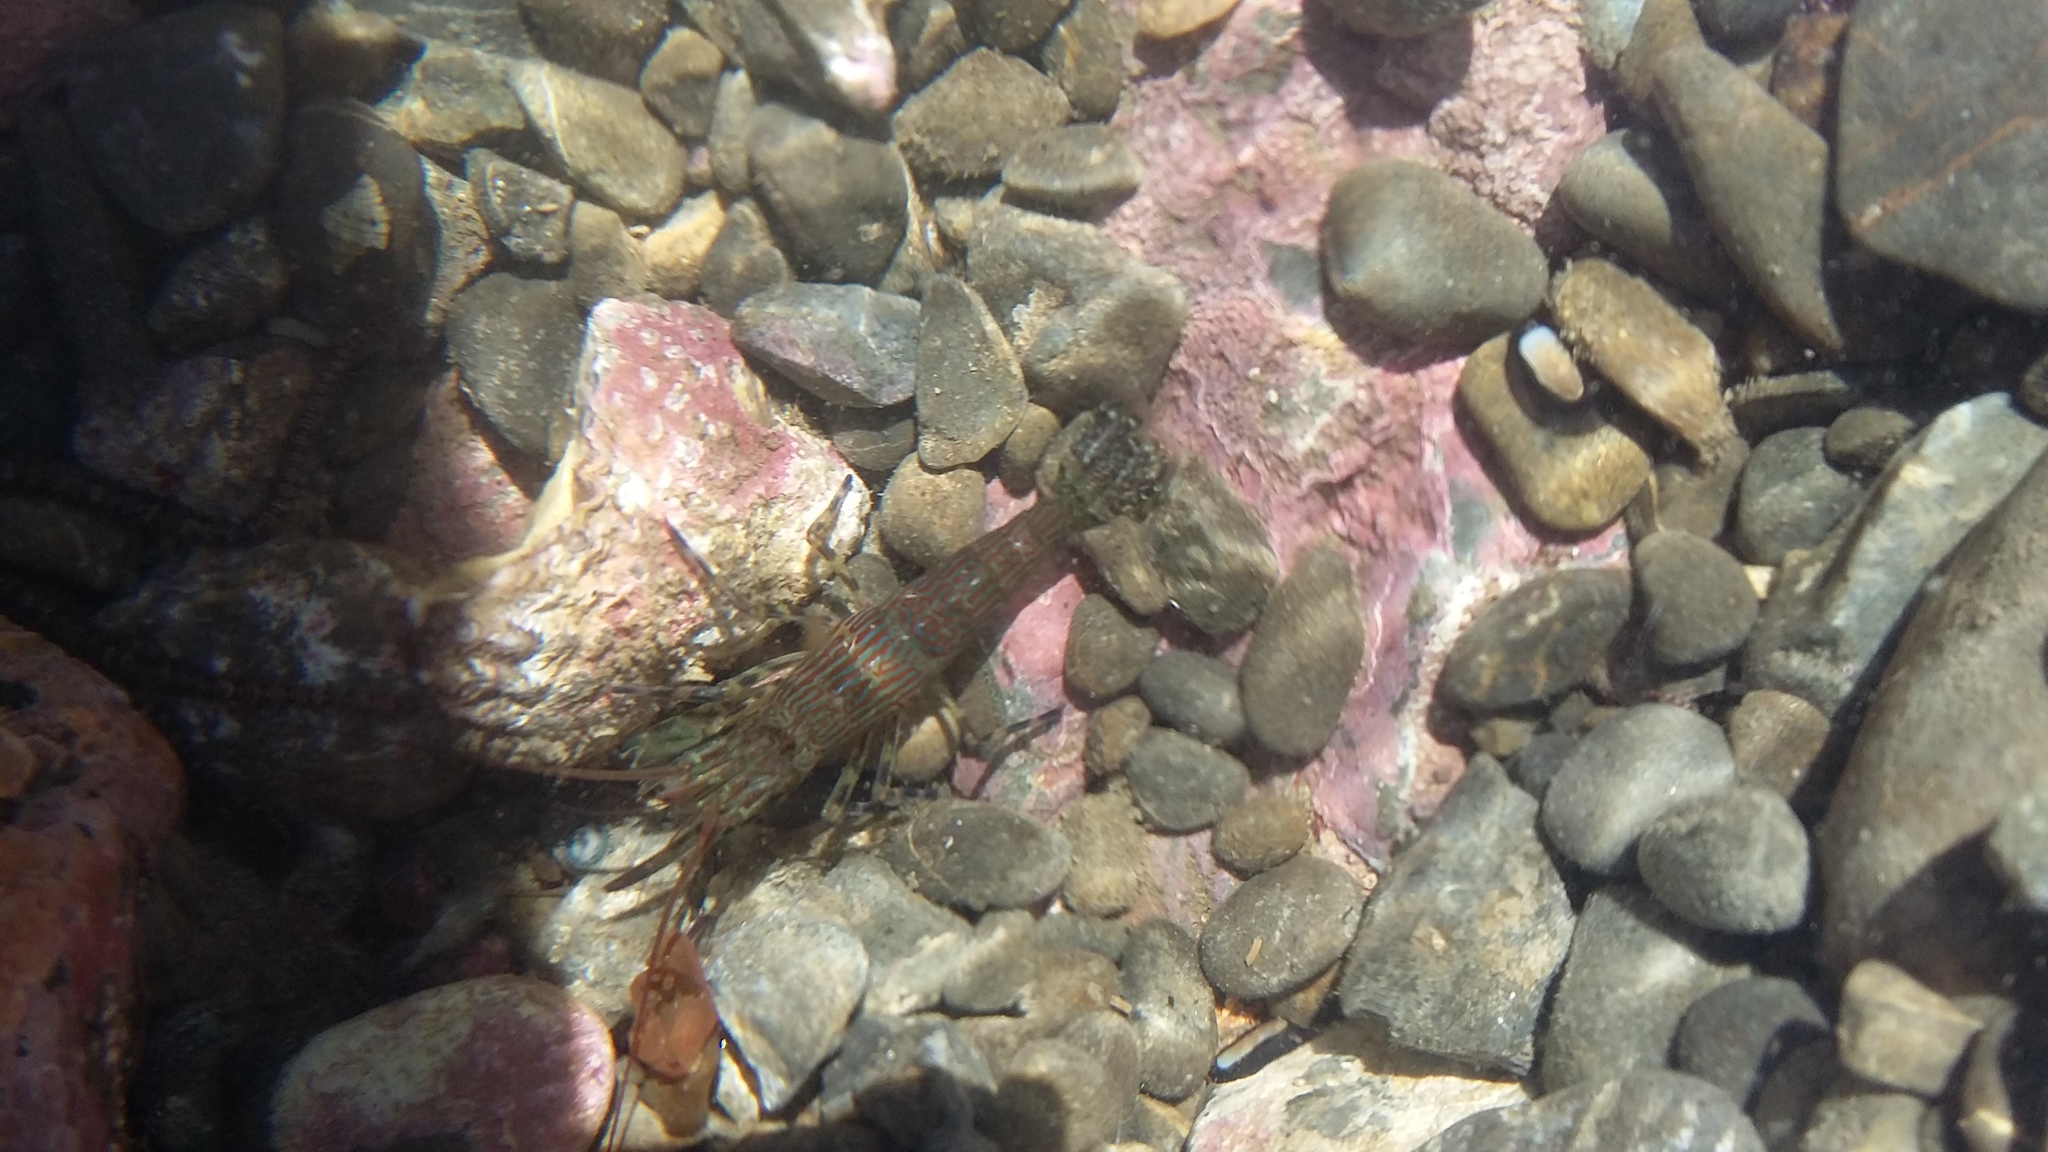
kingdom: Animalia
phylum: Arthropoda
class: Malacostraca
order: Decapoda
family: Hippolytidae
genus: Alope
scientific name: Alope spinifrons
